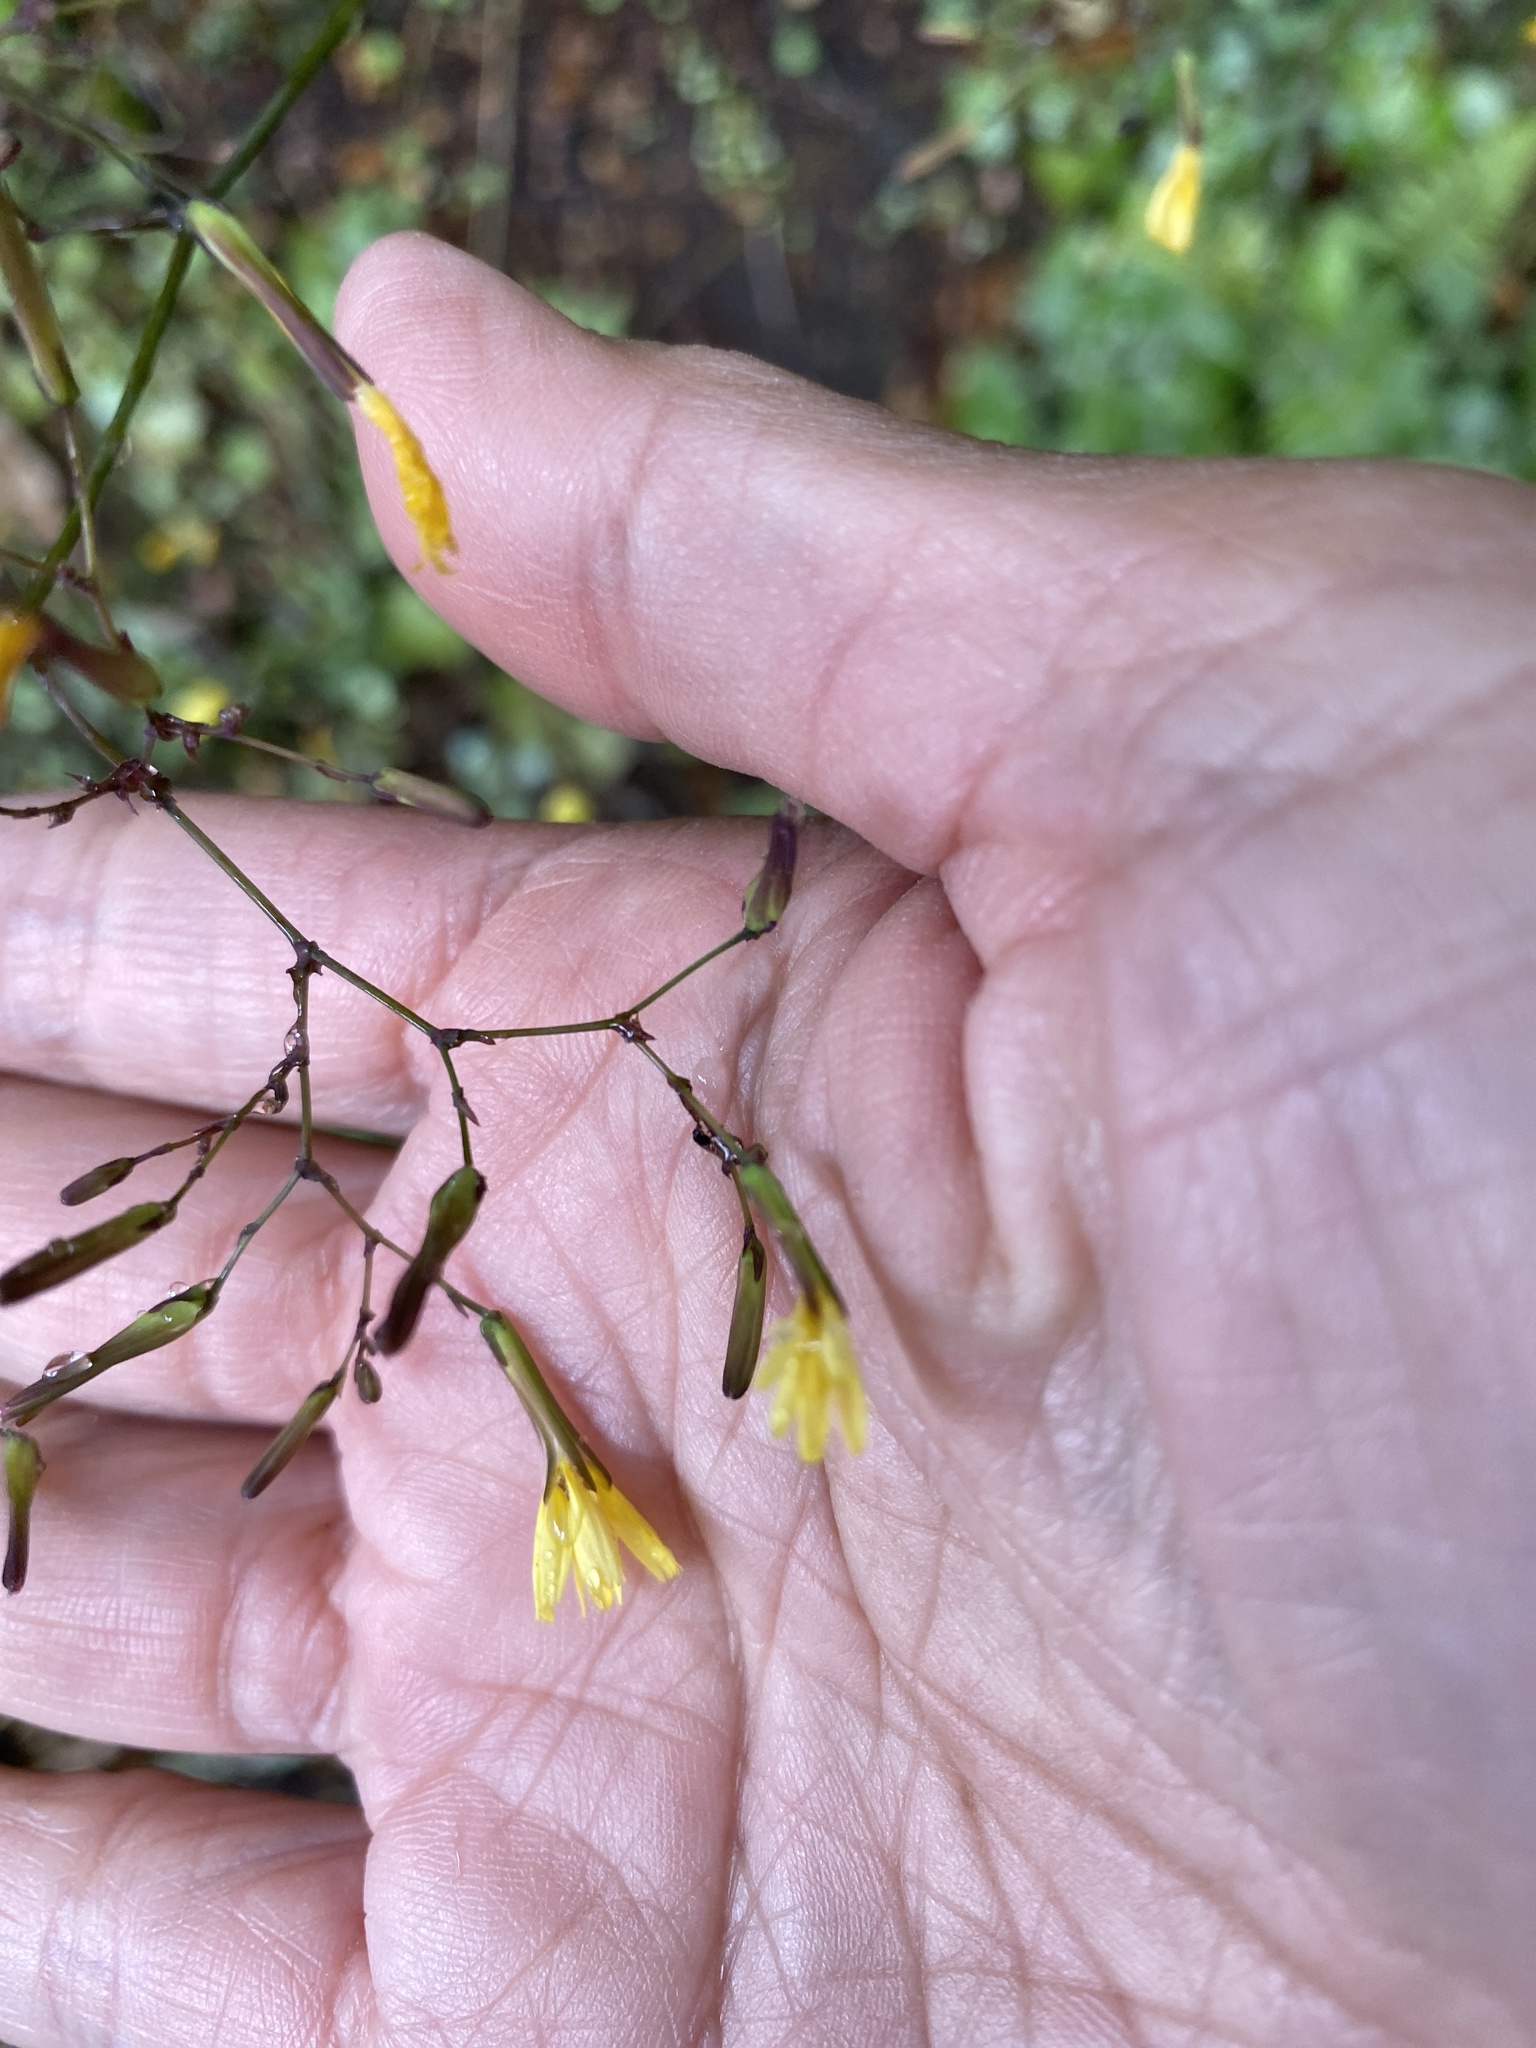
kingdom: Plantae
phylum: Tracheophyta
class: Magnoliopsida
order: Asterales
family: Asteraceae
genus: Mycelis
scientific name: Mycelis muralis
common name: Wall lettuce
